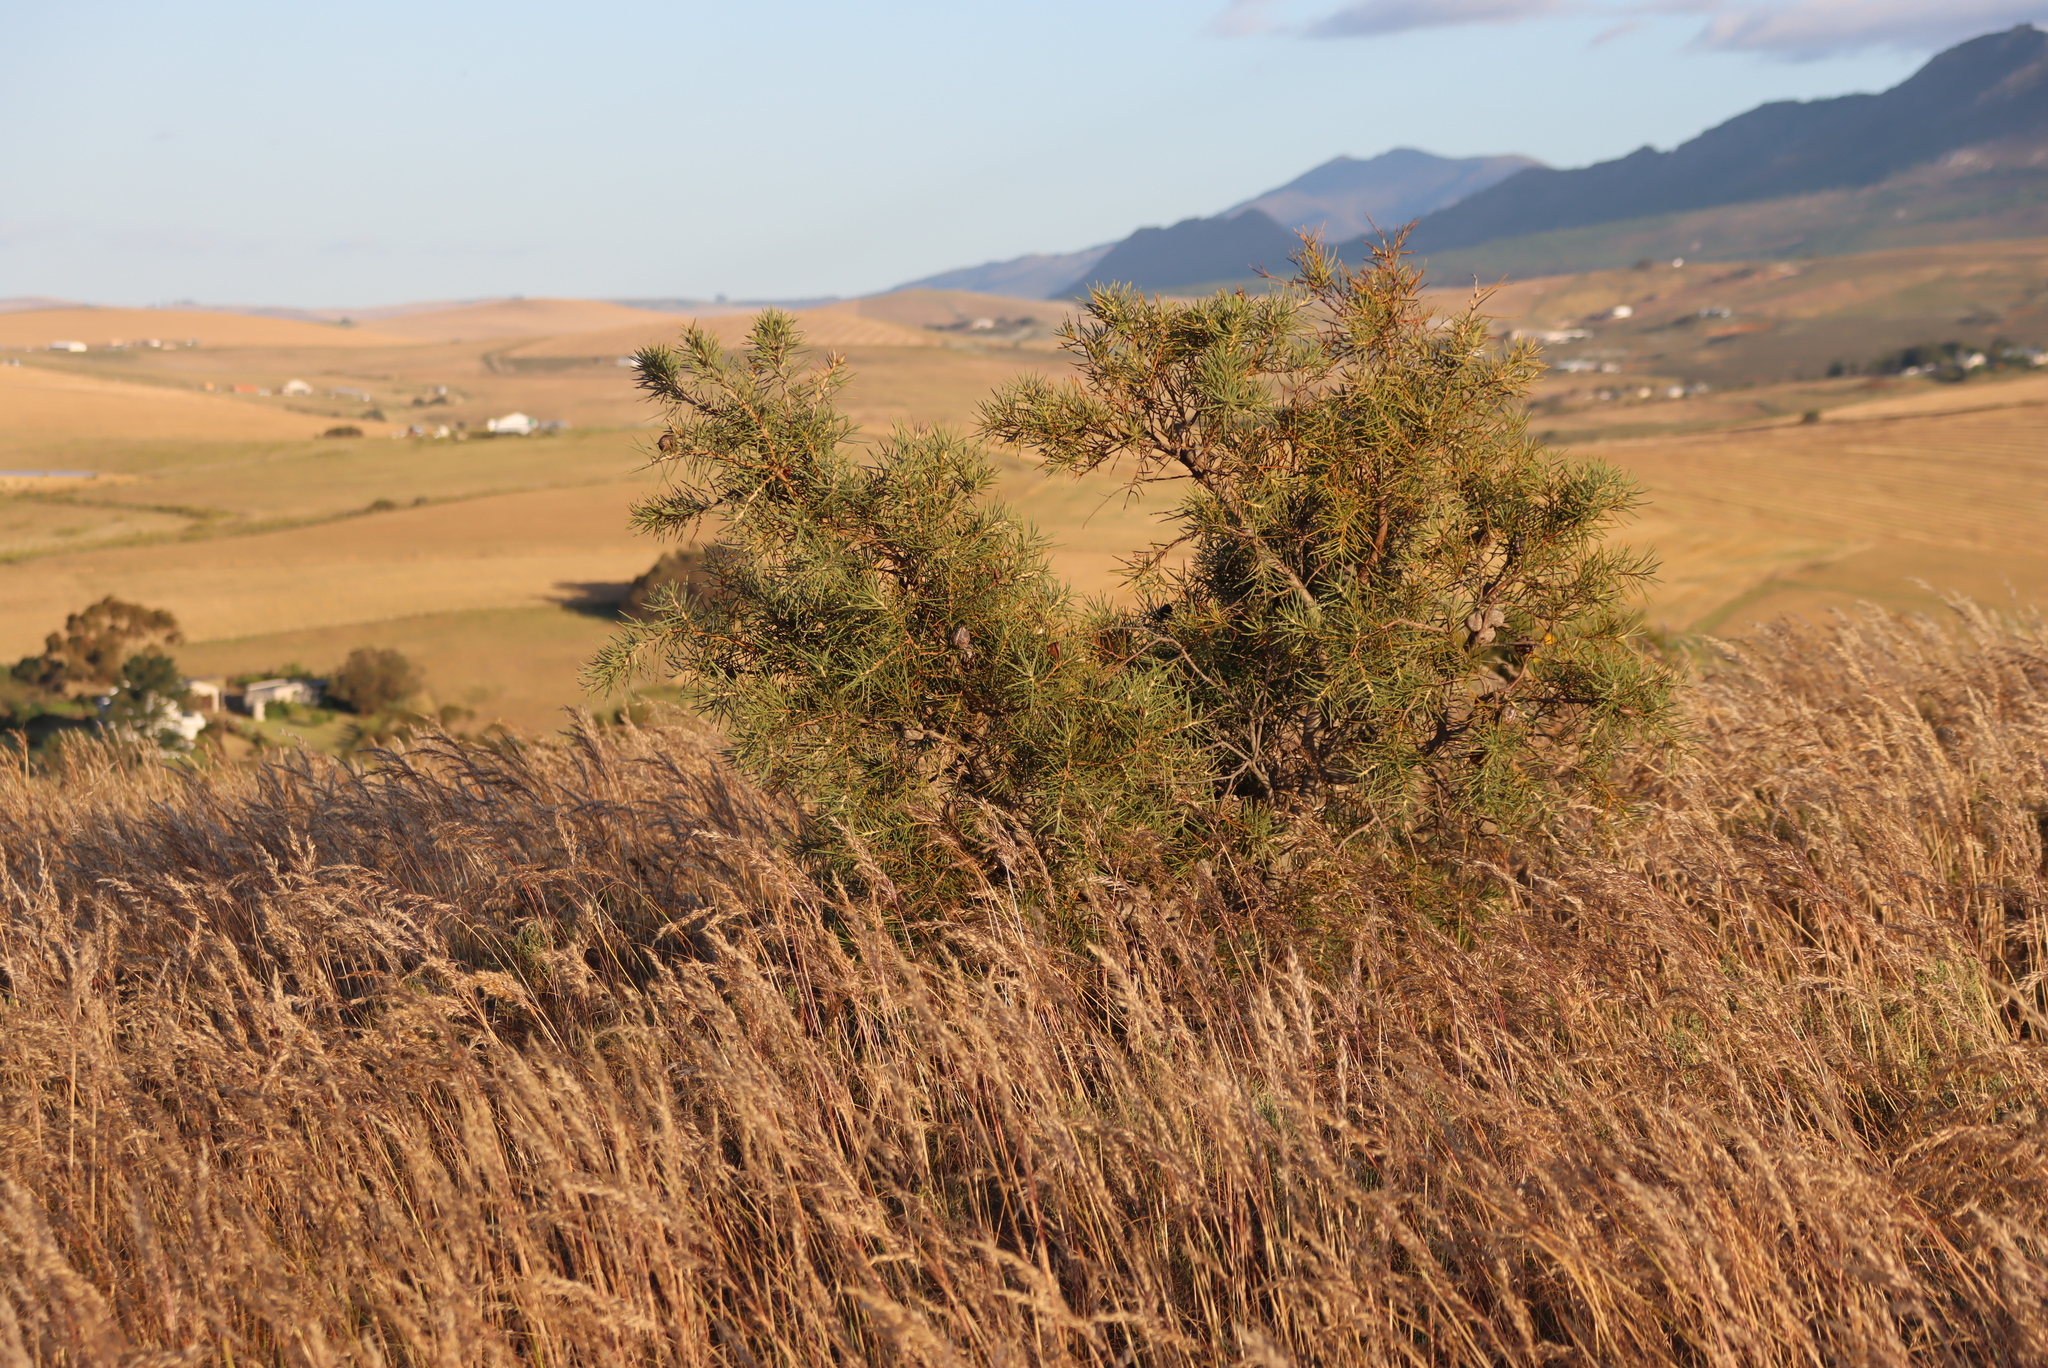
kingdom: Plantae
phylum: Tracheophyta
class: Magnoliopsida
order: Proteales
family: Proteaceae
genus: Hakea
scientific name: Hakea gibbosa
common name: Rock hakea
